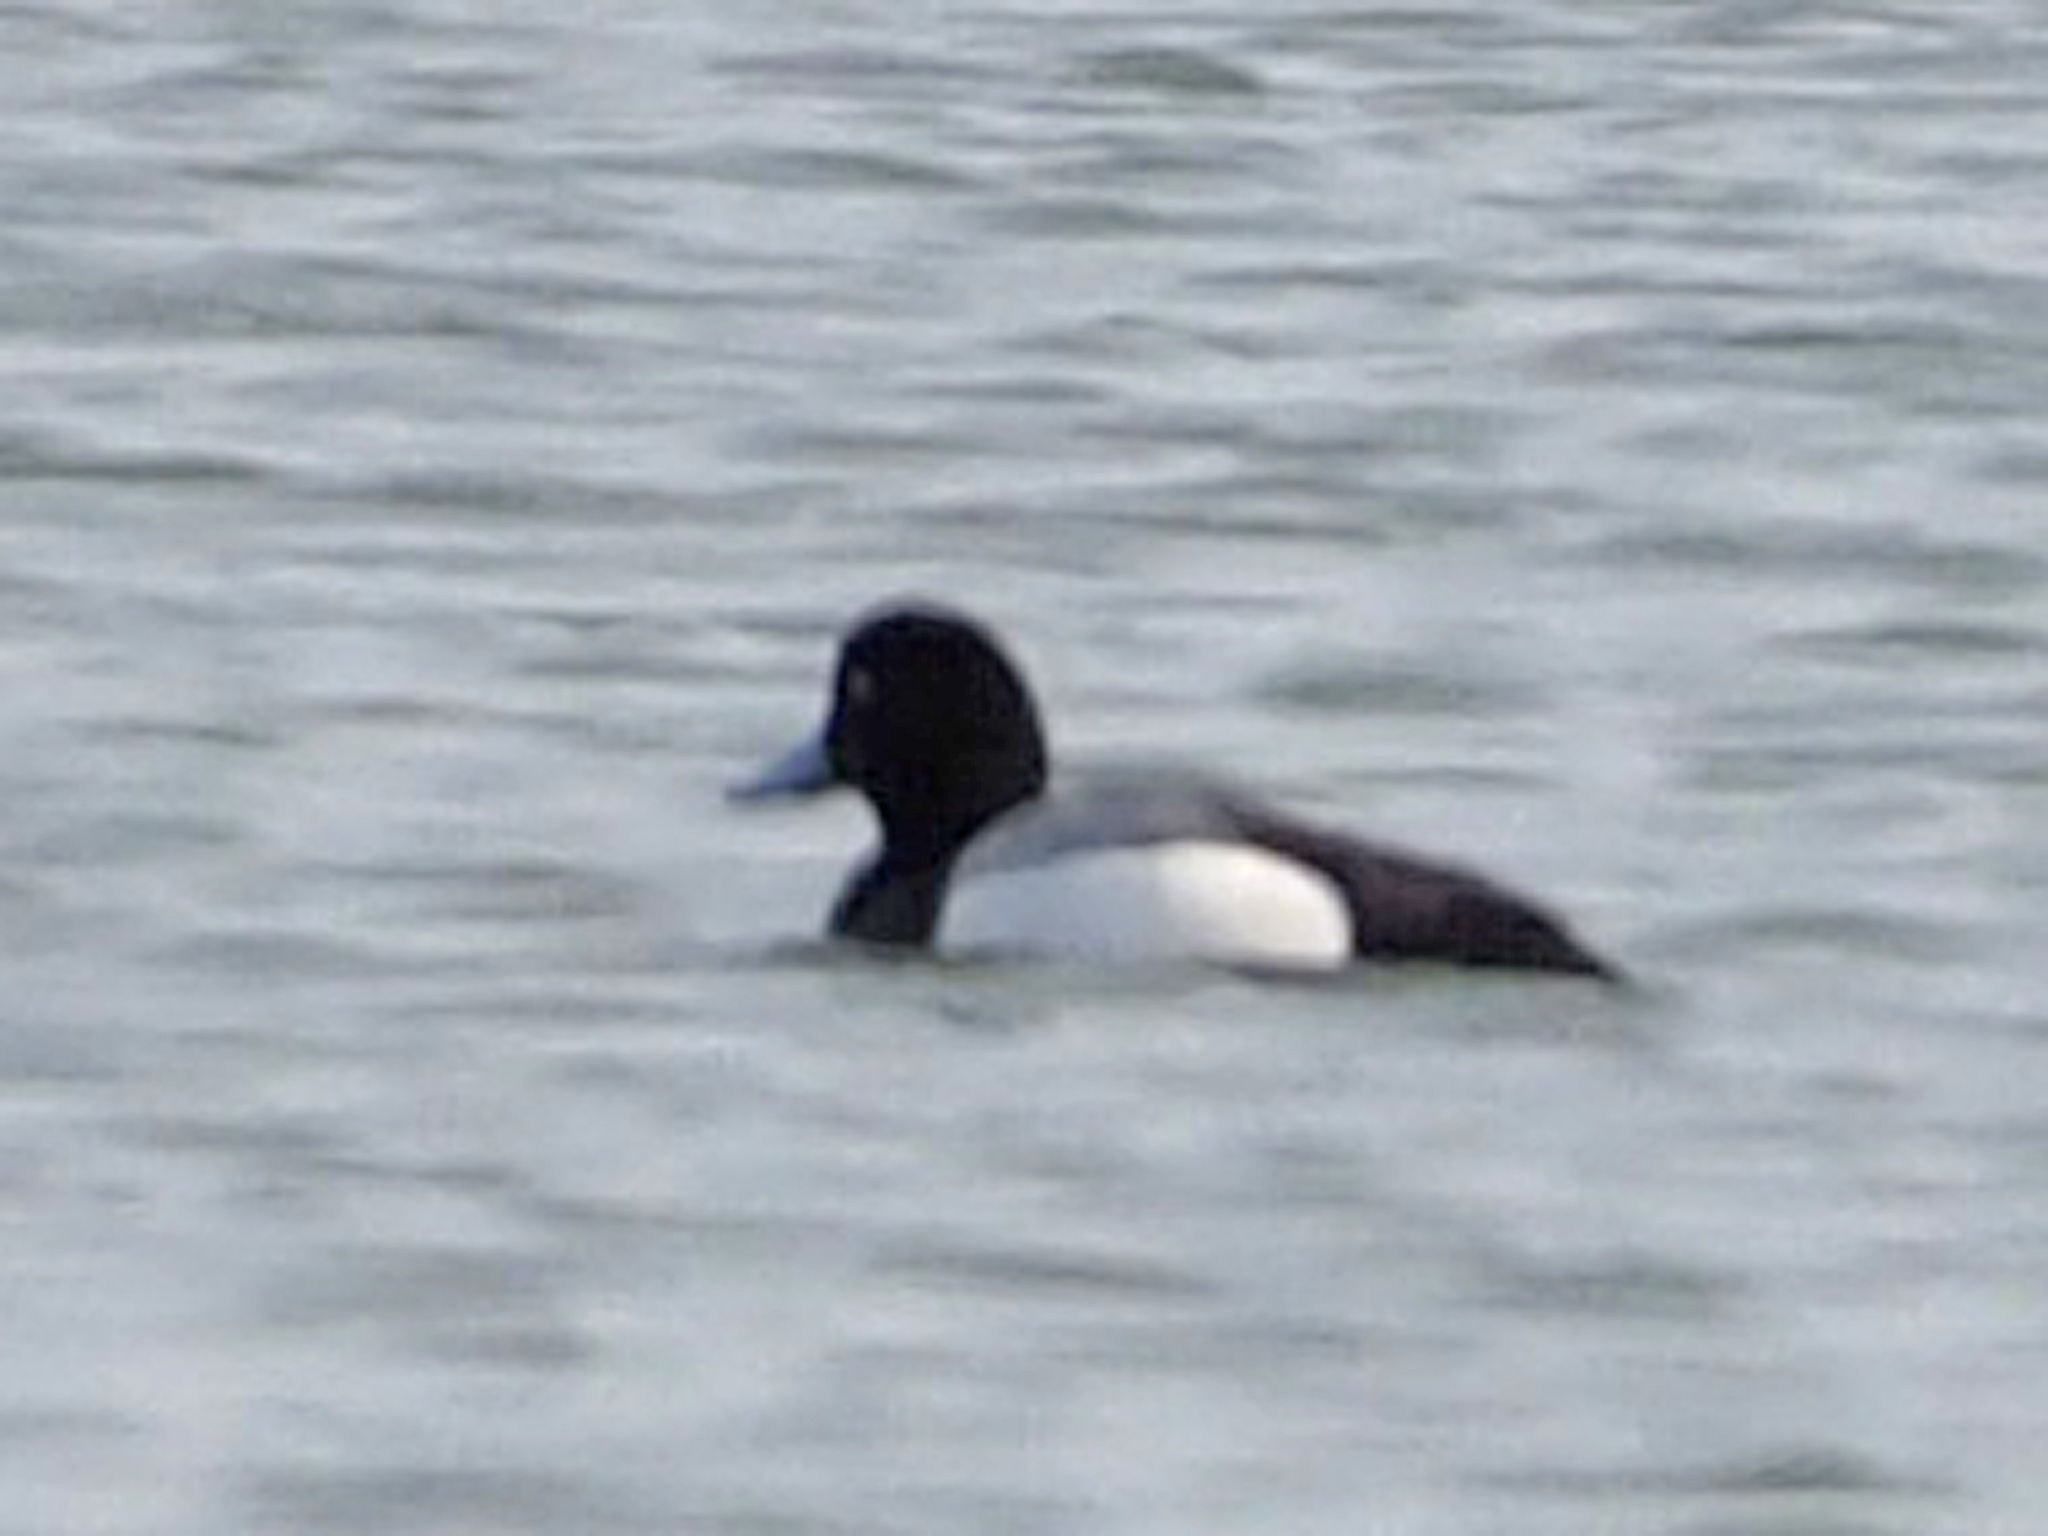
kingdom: Animalia
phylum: Chordata
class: Aves
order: Anseriformes
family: Anatidae
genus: Aythya
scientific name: Aythya marila
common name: Greater scaup
